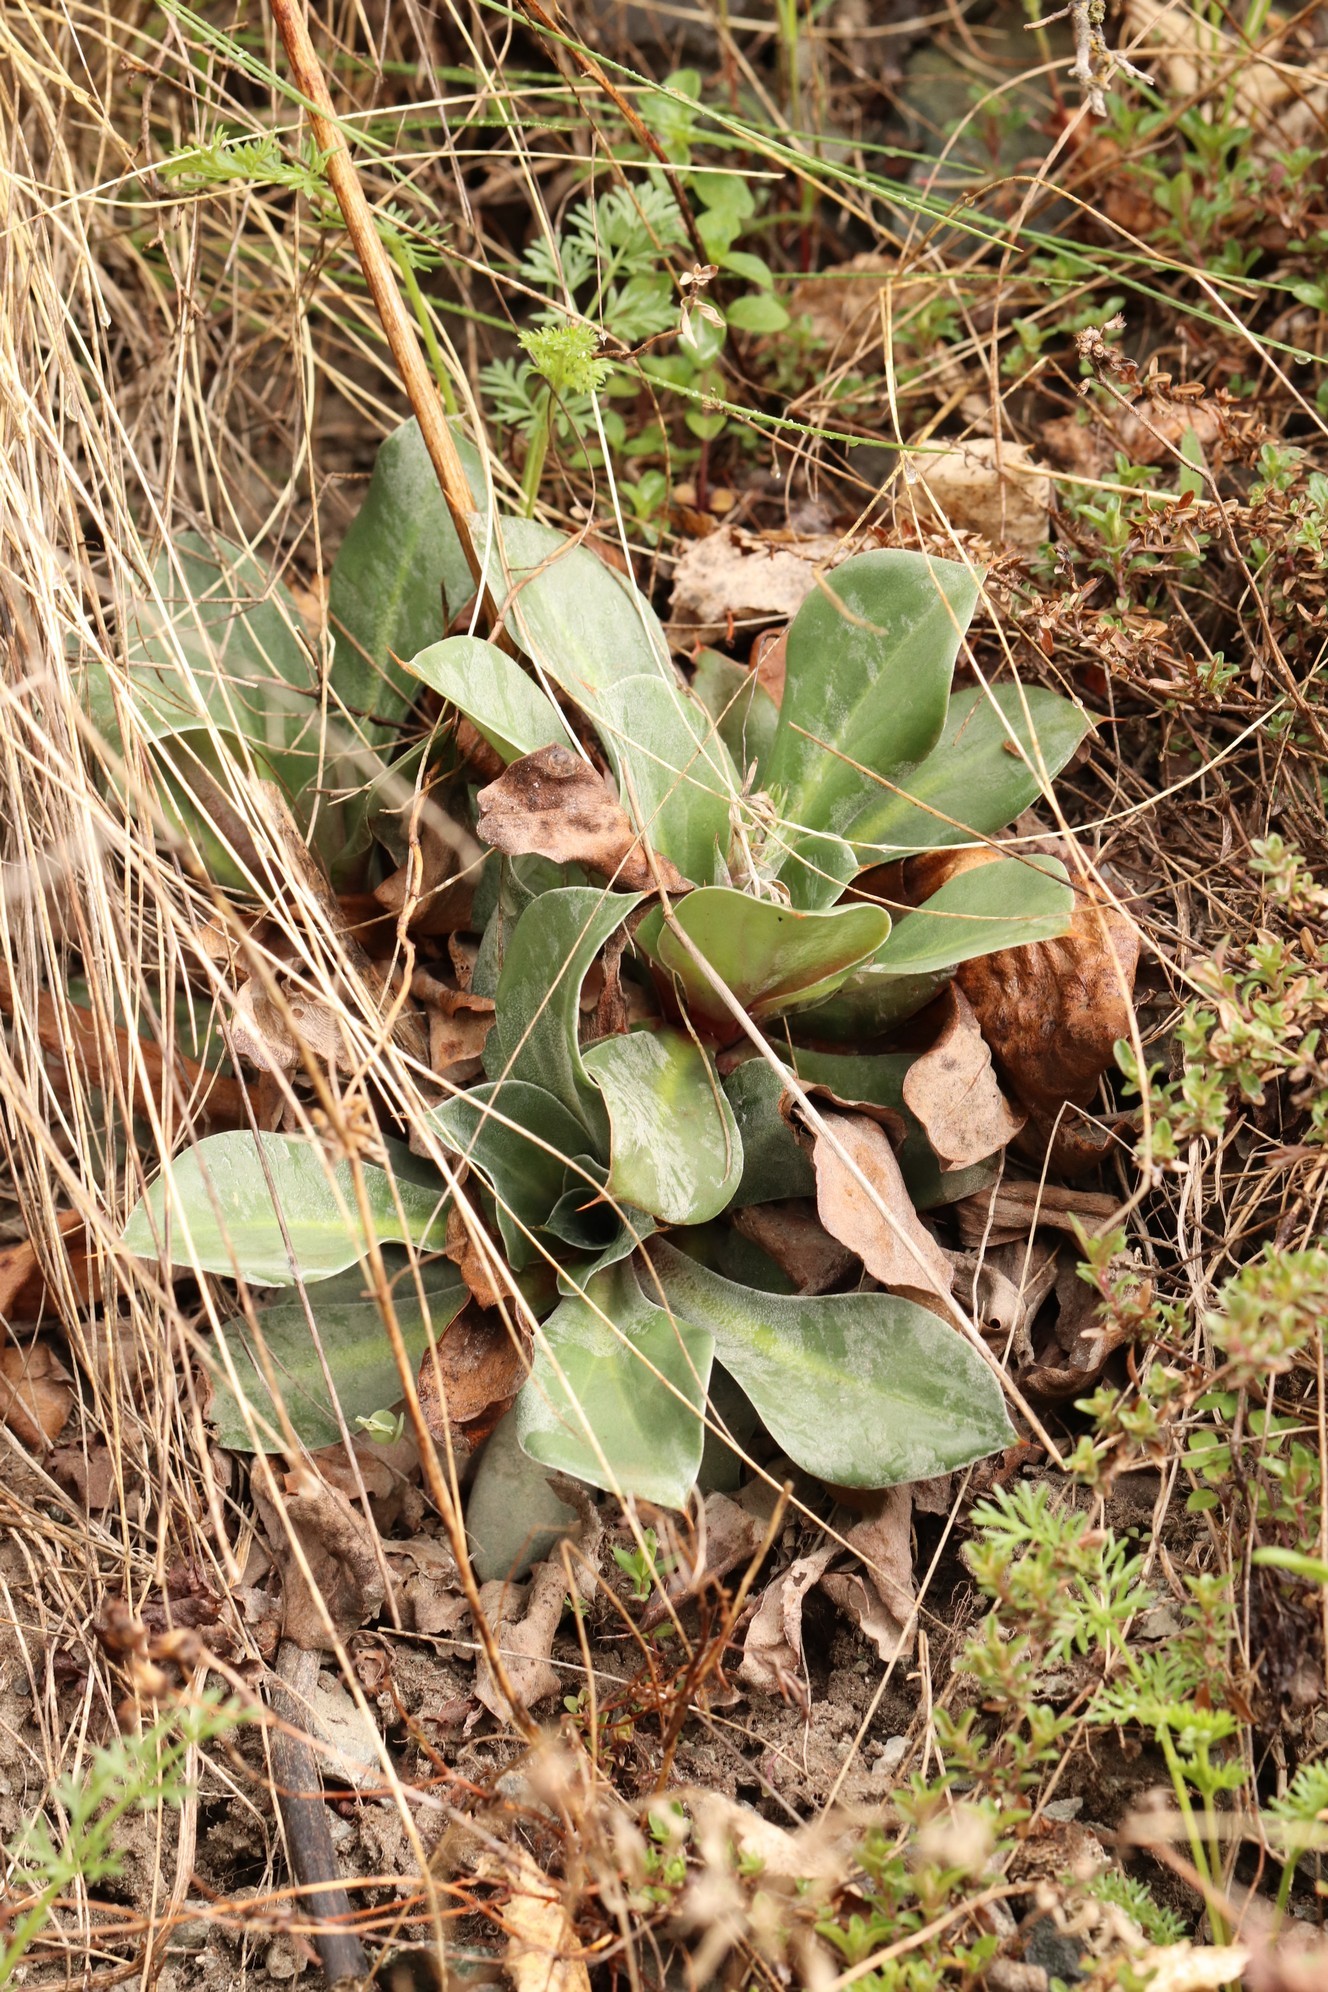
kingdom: Plantae
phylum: Tracheophyta
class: Magnoliopsida
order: Caryophyllales
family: Plumbaginaceae
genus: Goniolimon
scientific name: Goniolimon speciosum
